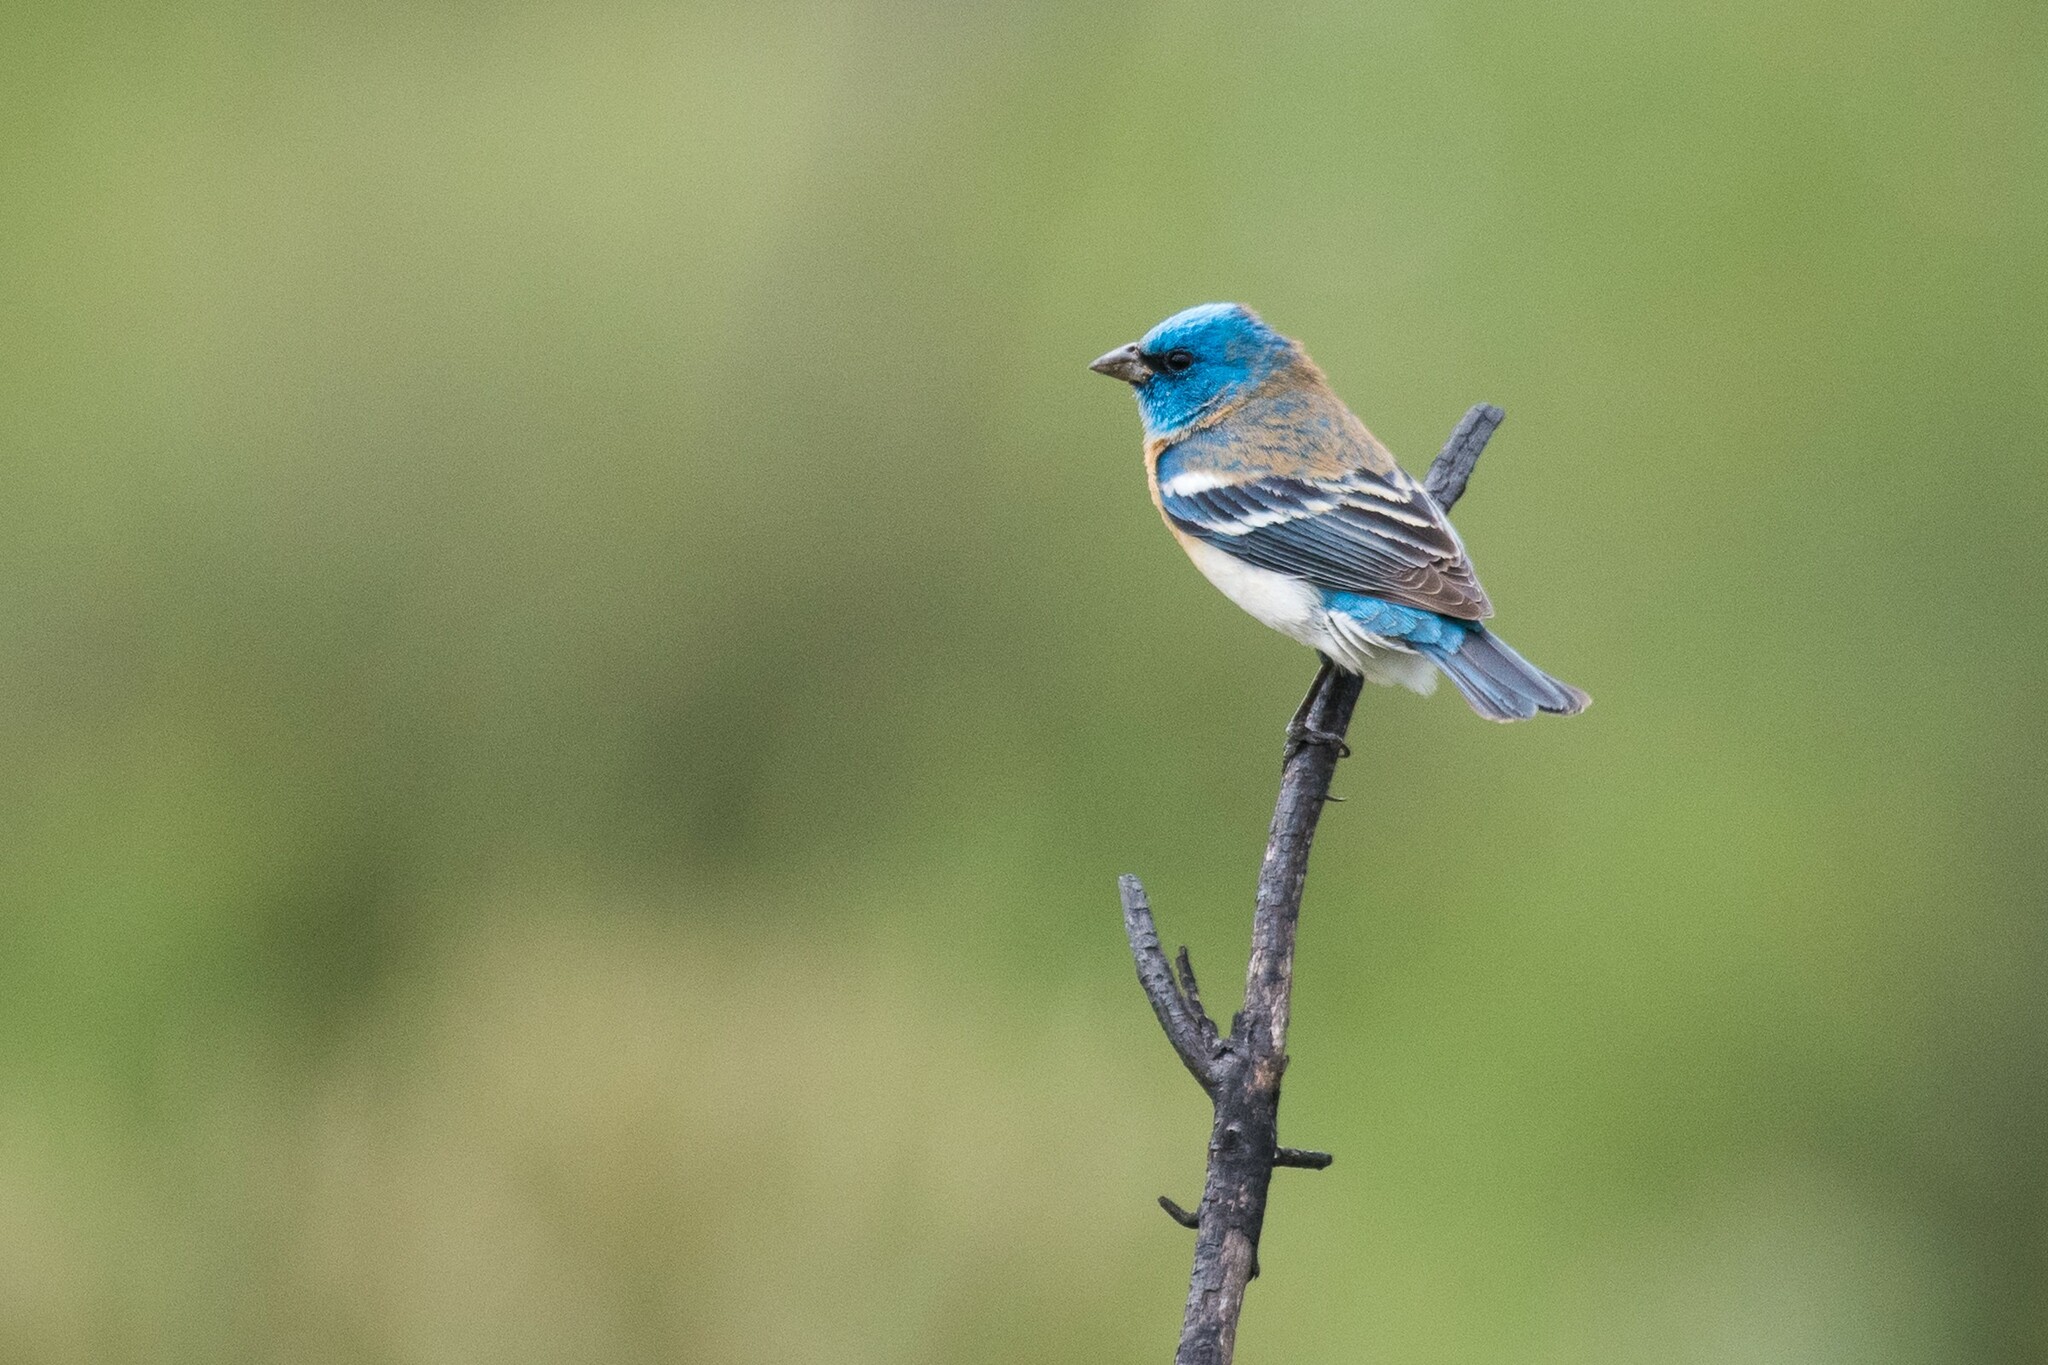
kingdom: Animalia
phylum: Chordata
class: Aves
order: Passeriformes
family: Cardinalidae
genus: Passerina
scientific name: Passerina amoena
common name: Lazuli bunting
